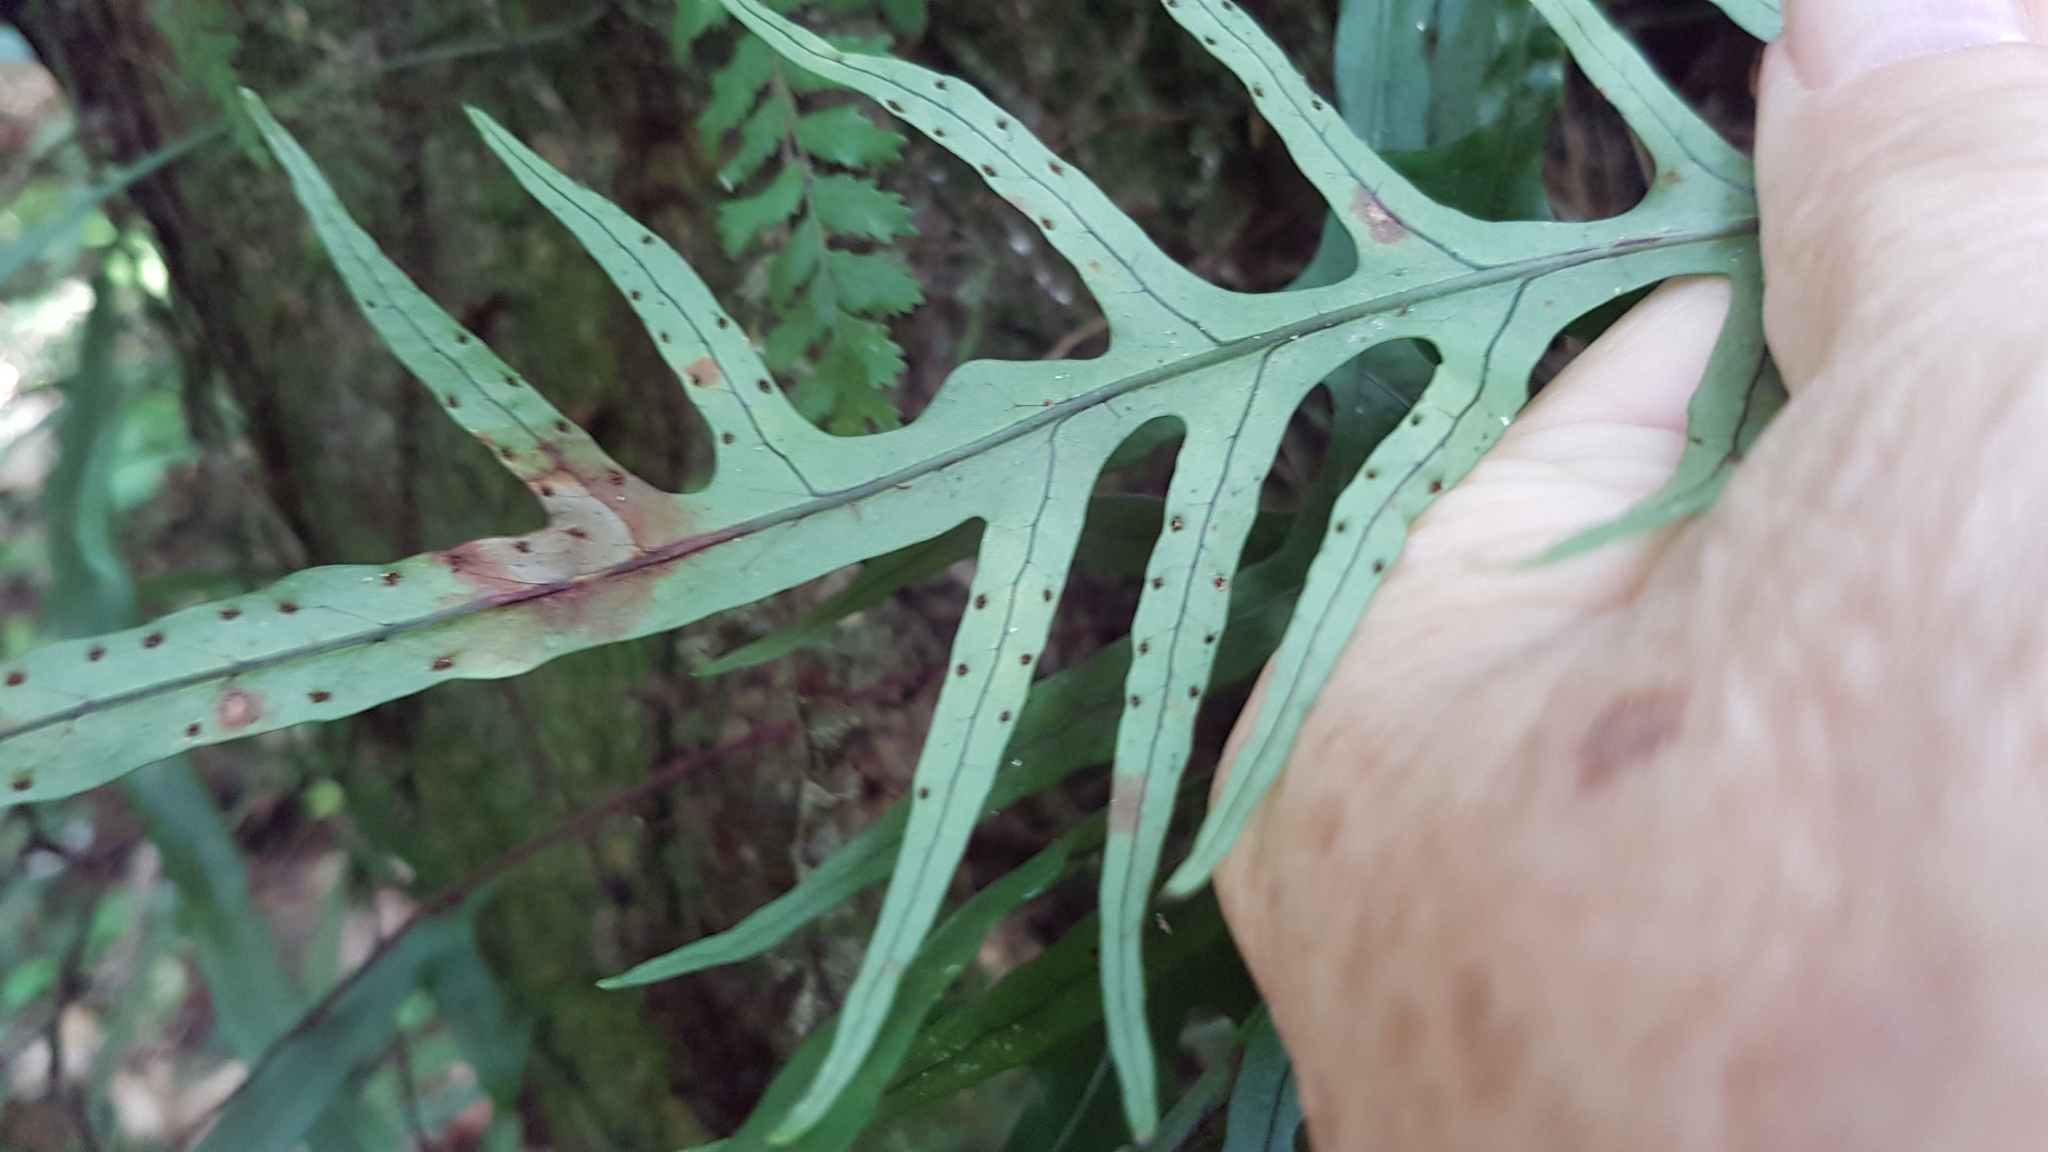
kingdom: Plantae
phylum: Tracheophyta
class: Polypodiopsida
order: Polypodiales
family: Polypodiaceae
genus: Lecanopteris
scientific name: Lecanopteris scandens
